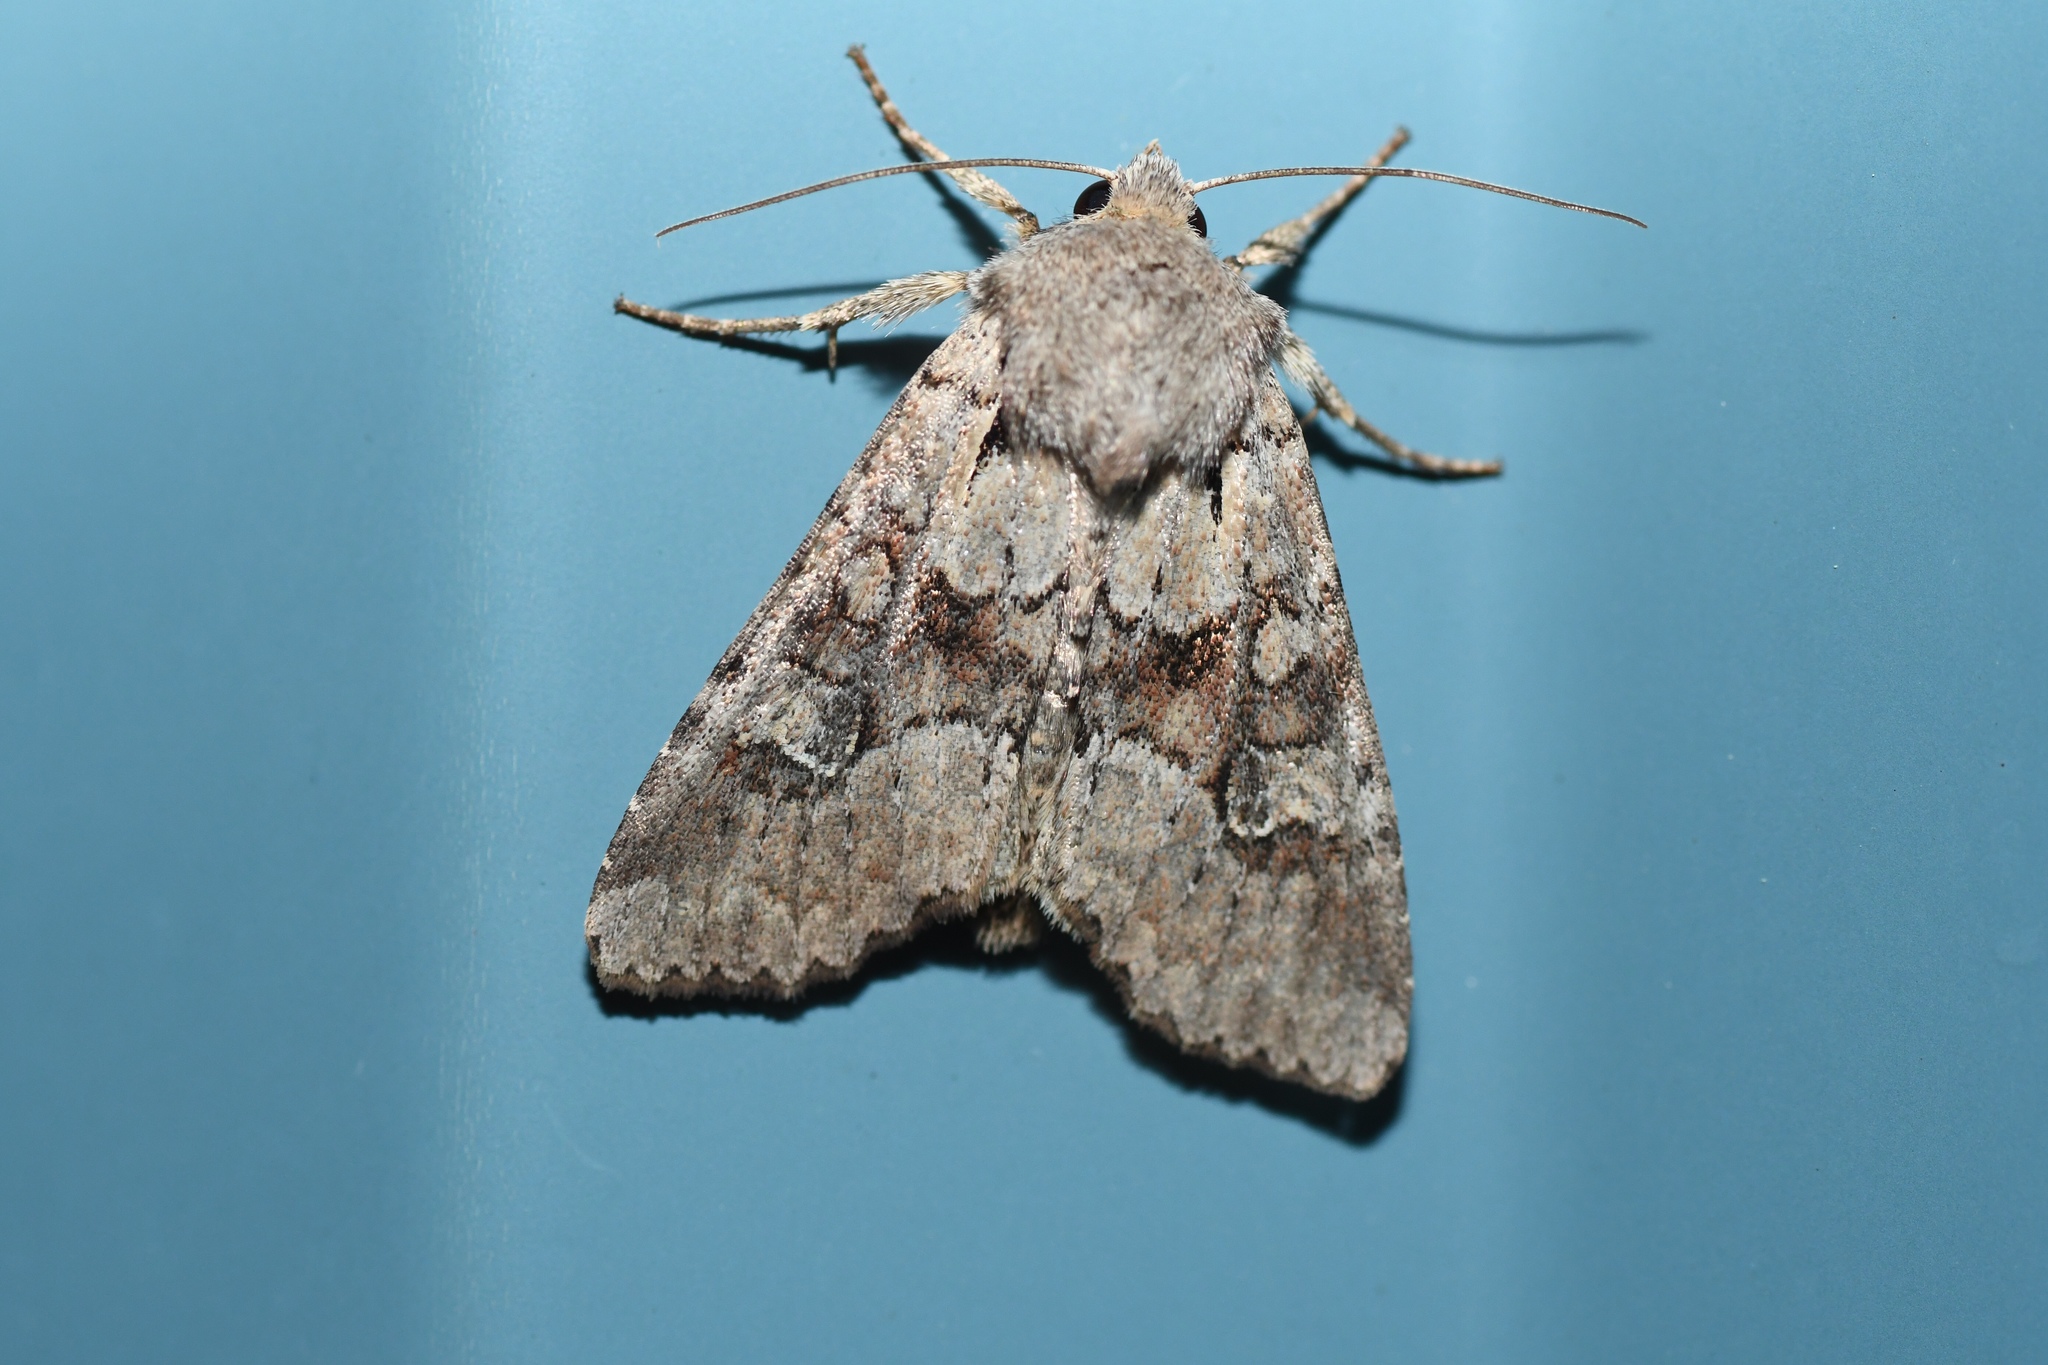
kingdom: Animalia
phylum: Arthropoda
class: Insecta
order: Lepidoptera
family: Noctuidae
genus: Apamea
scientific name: Apamea sordens
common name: Rustic shoulder-knot
